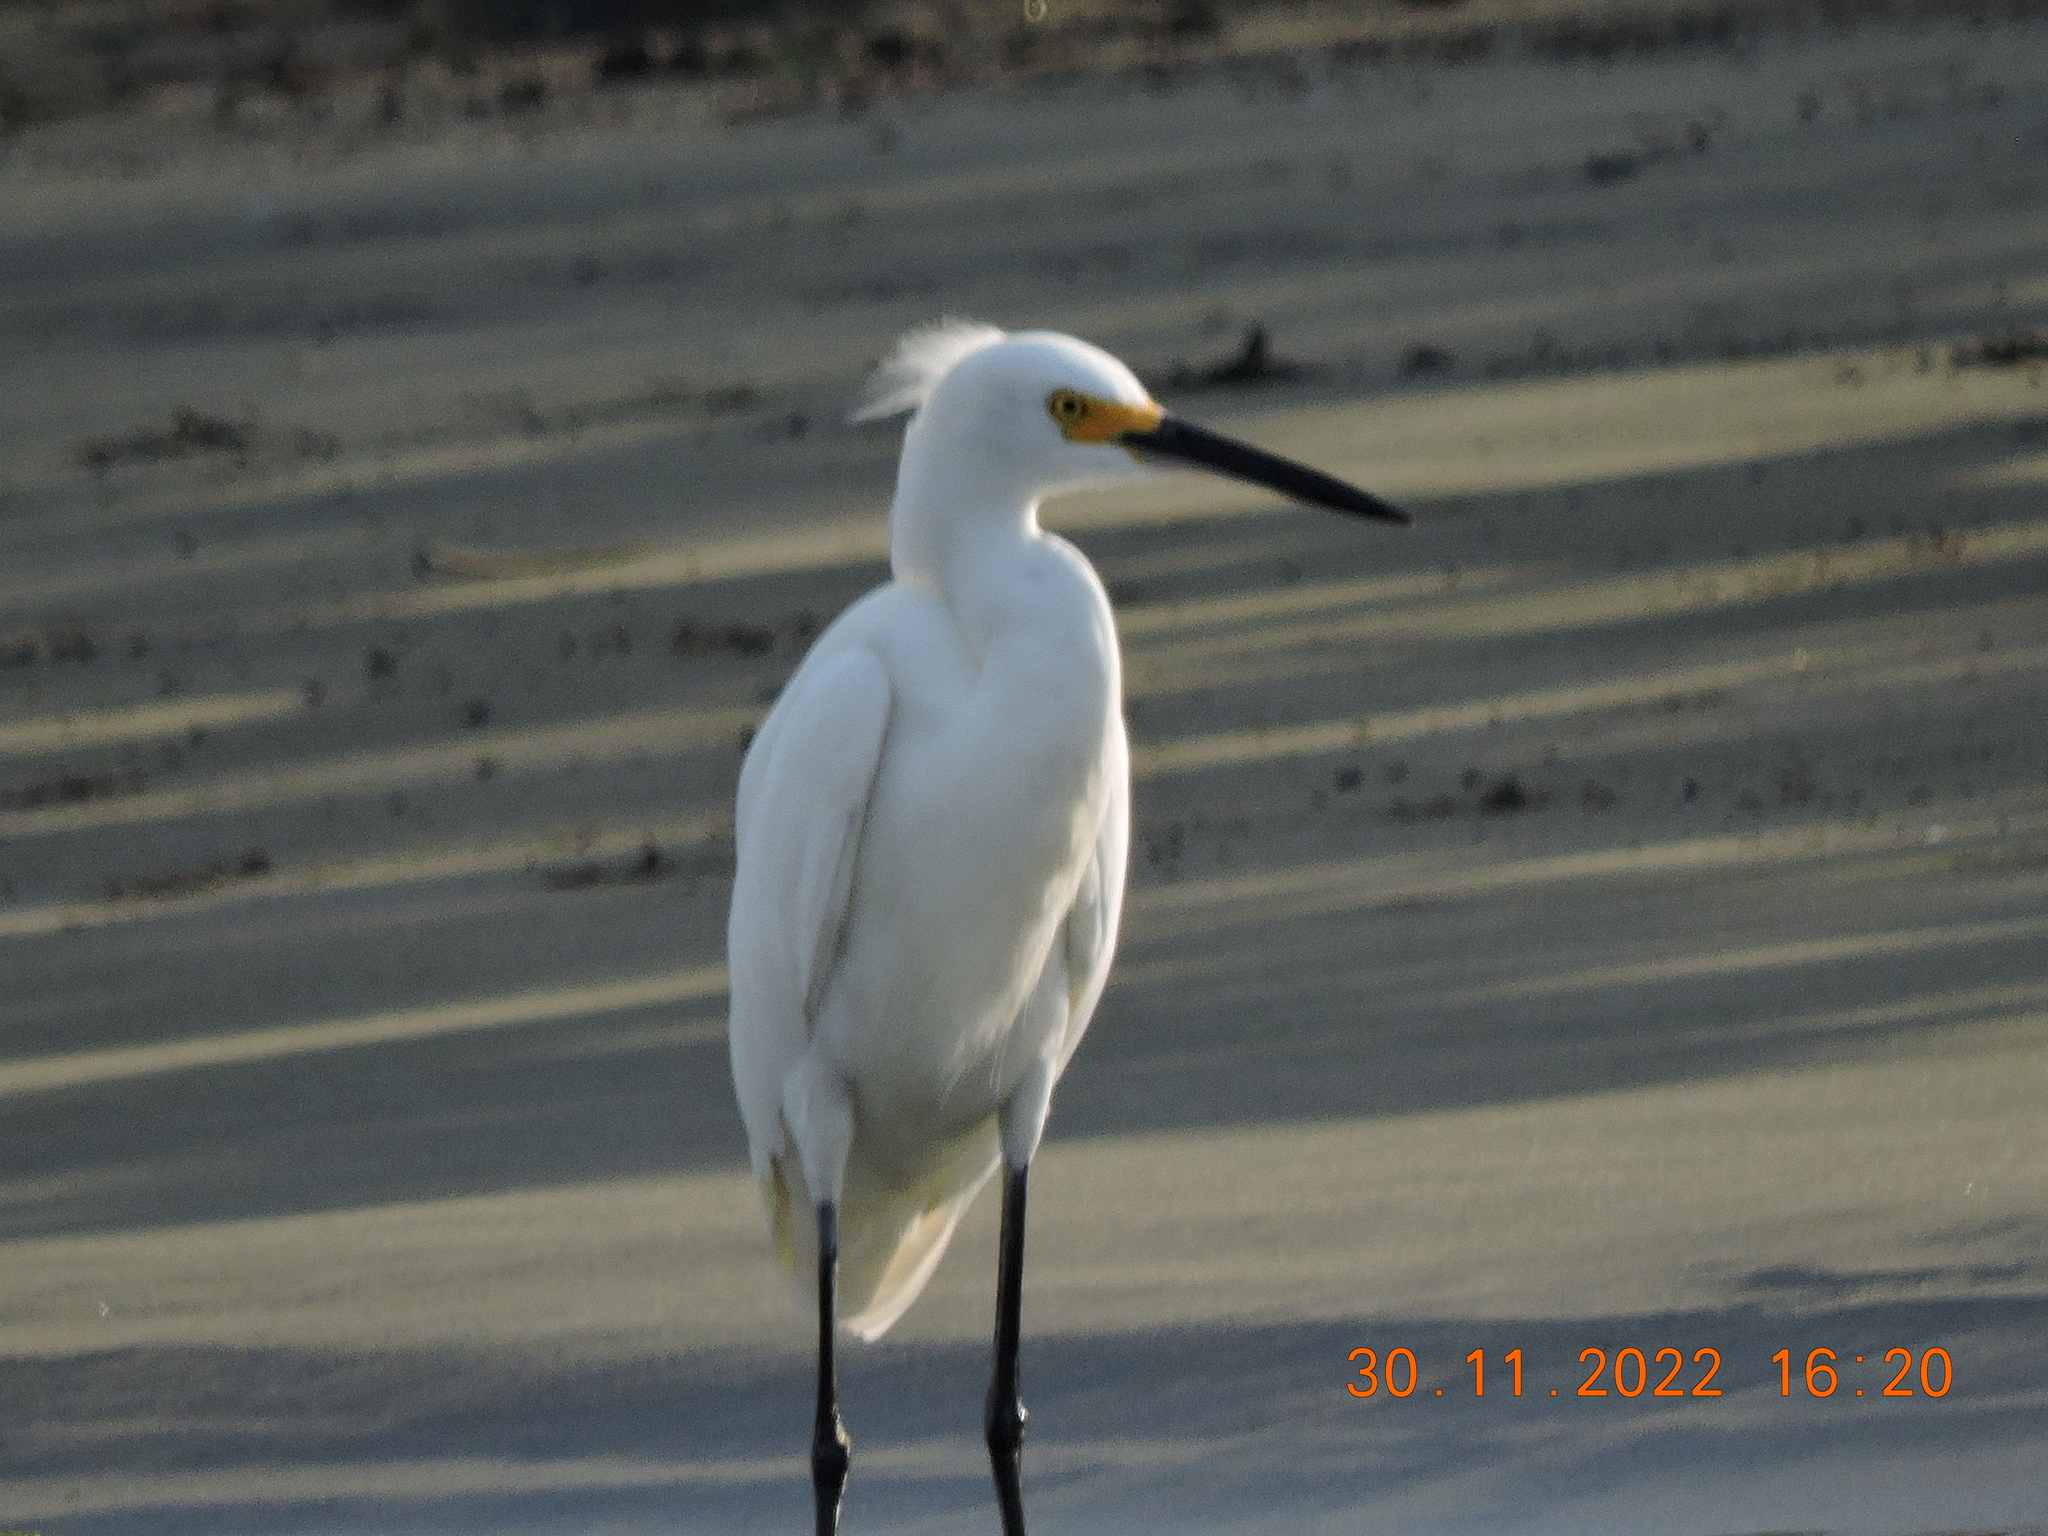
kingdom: Animalia
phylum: Chordata
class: Aves
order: Pelecaniformes
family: Ardeidae
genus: Egretta
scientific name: Egretta thula
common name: Snowy egret
